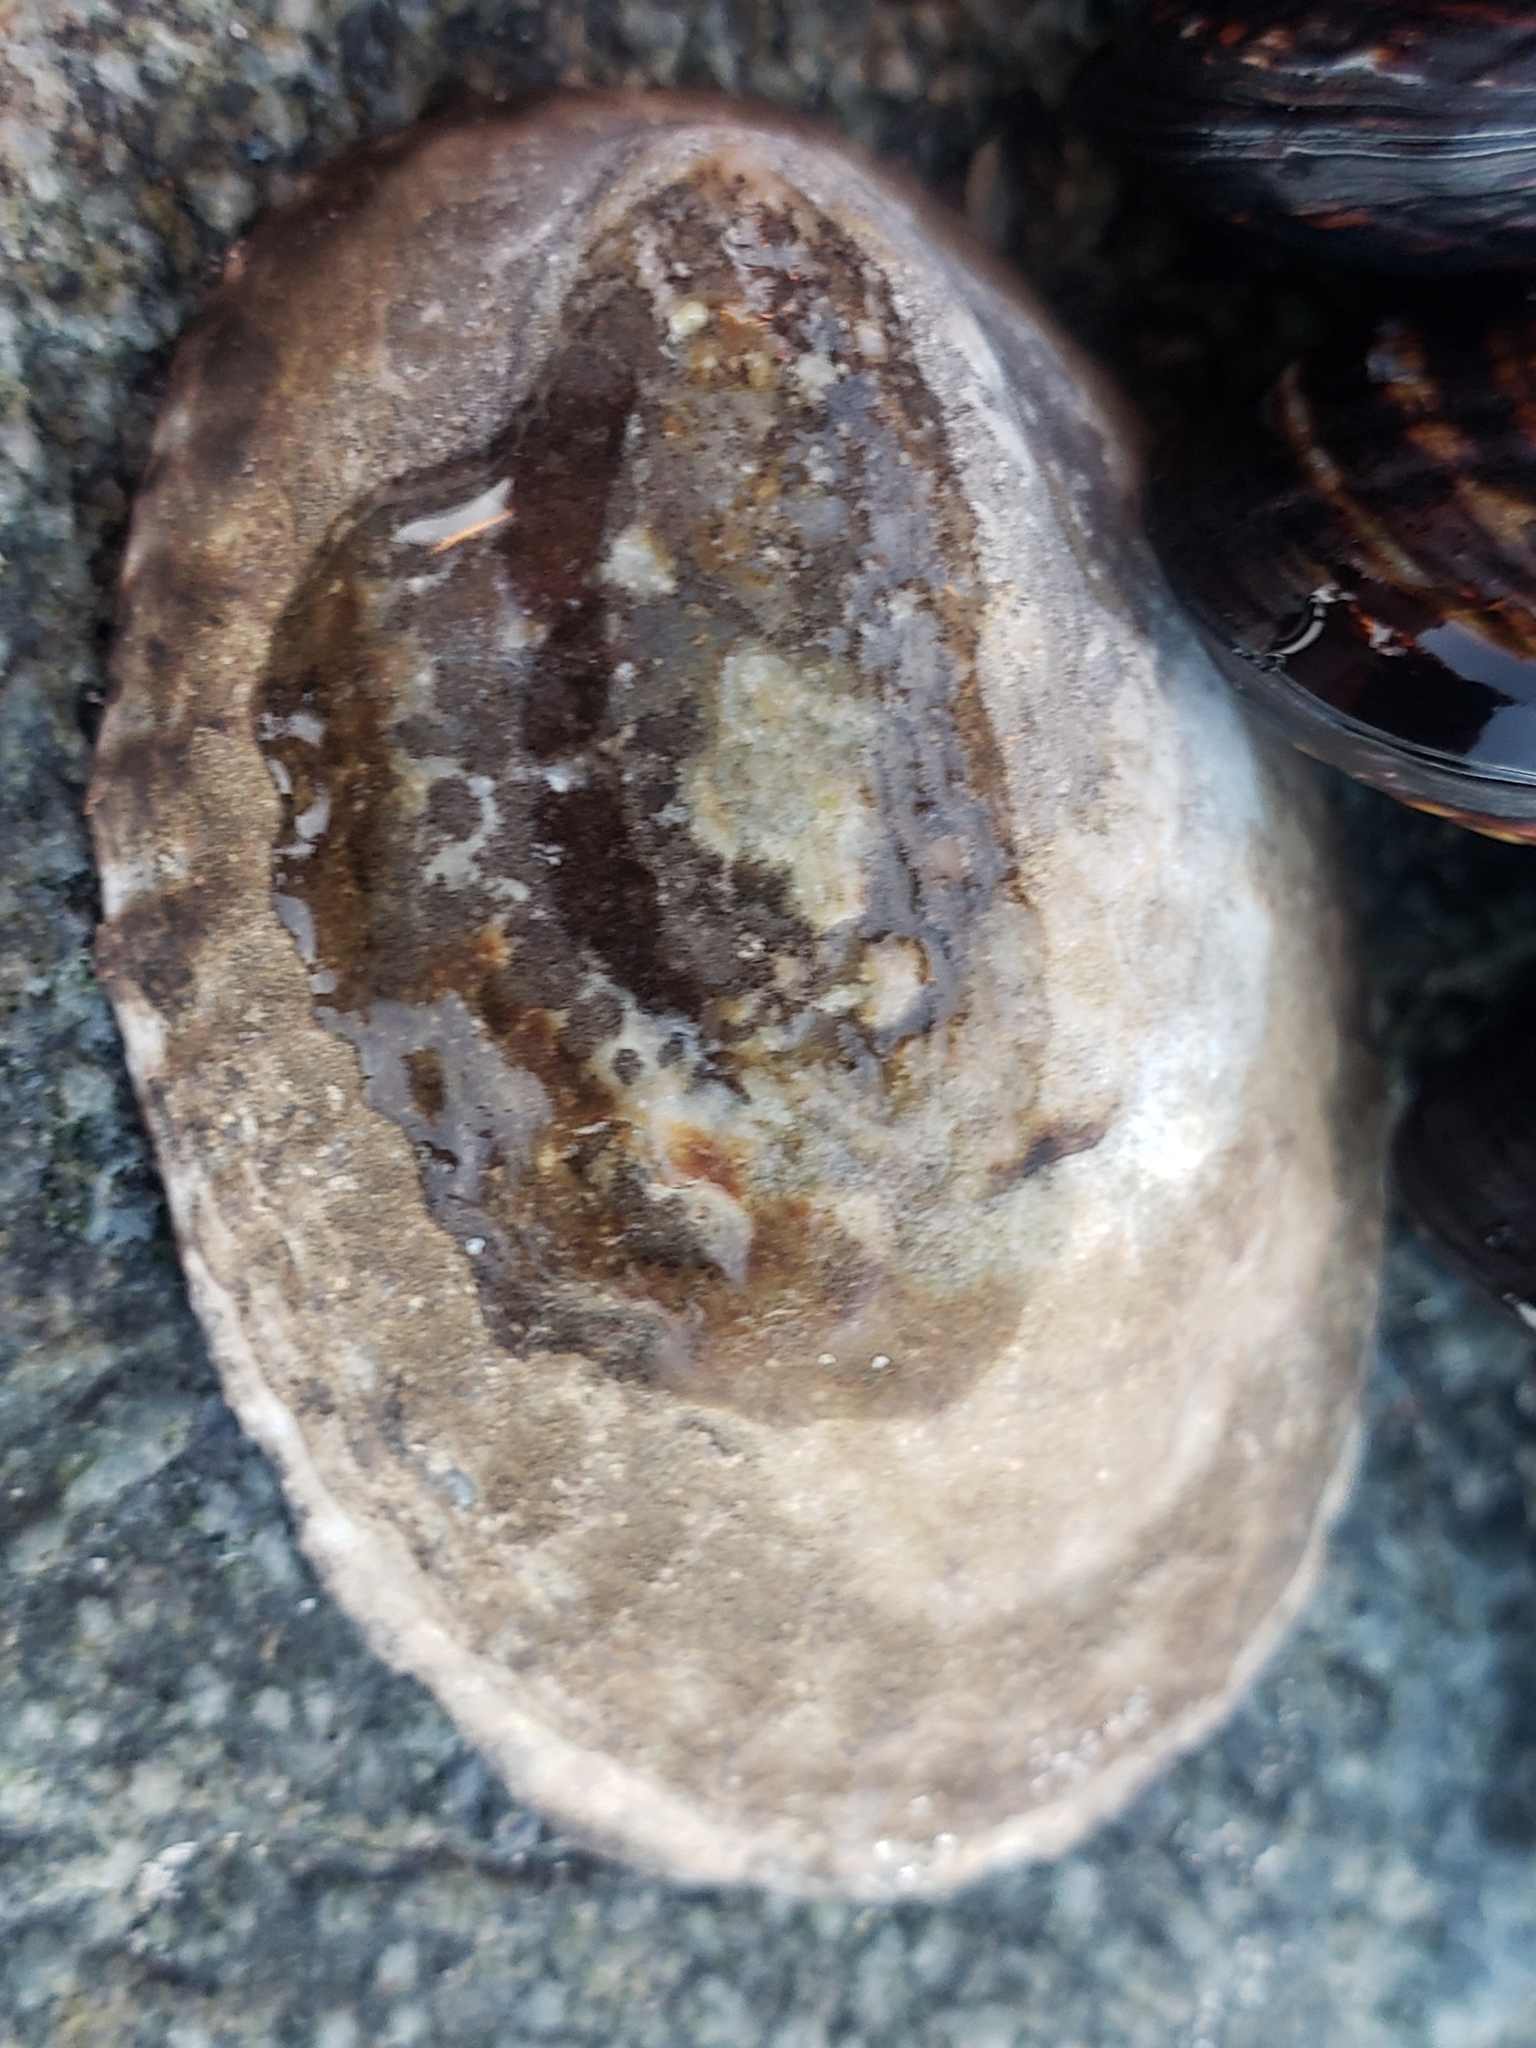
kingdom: Animalia
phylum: Mollusca
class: Gastropoda
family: Lottiidae
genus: Lottia
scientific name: Lottia gigantea
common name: Owl limpet
